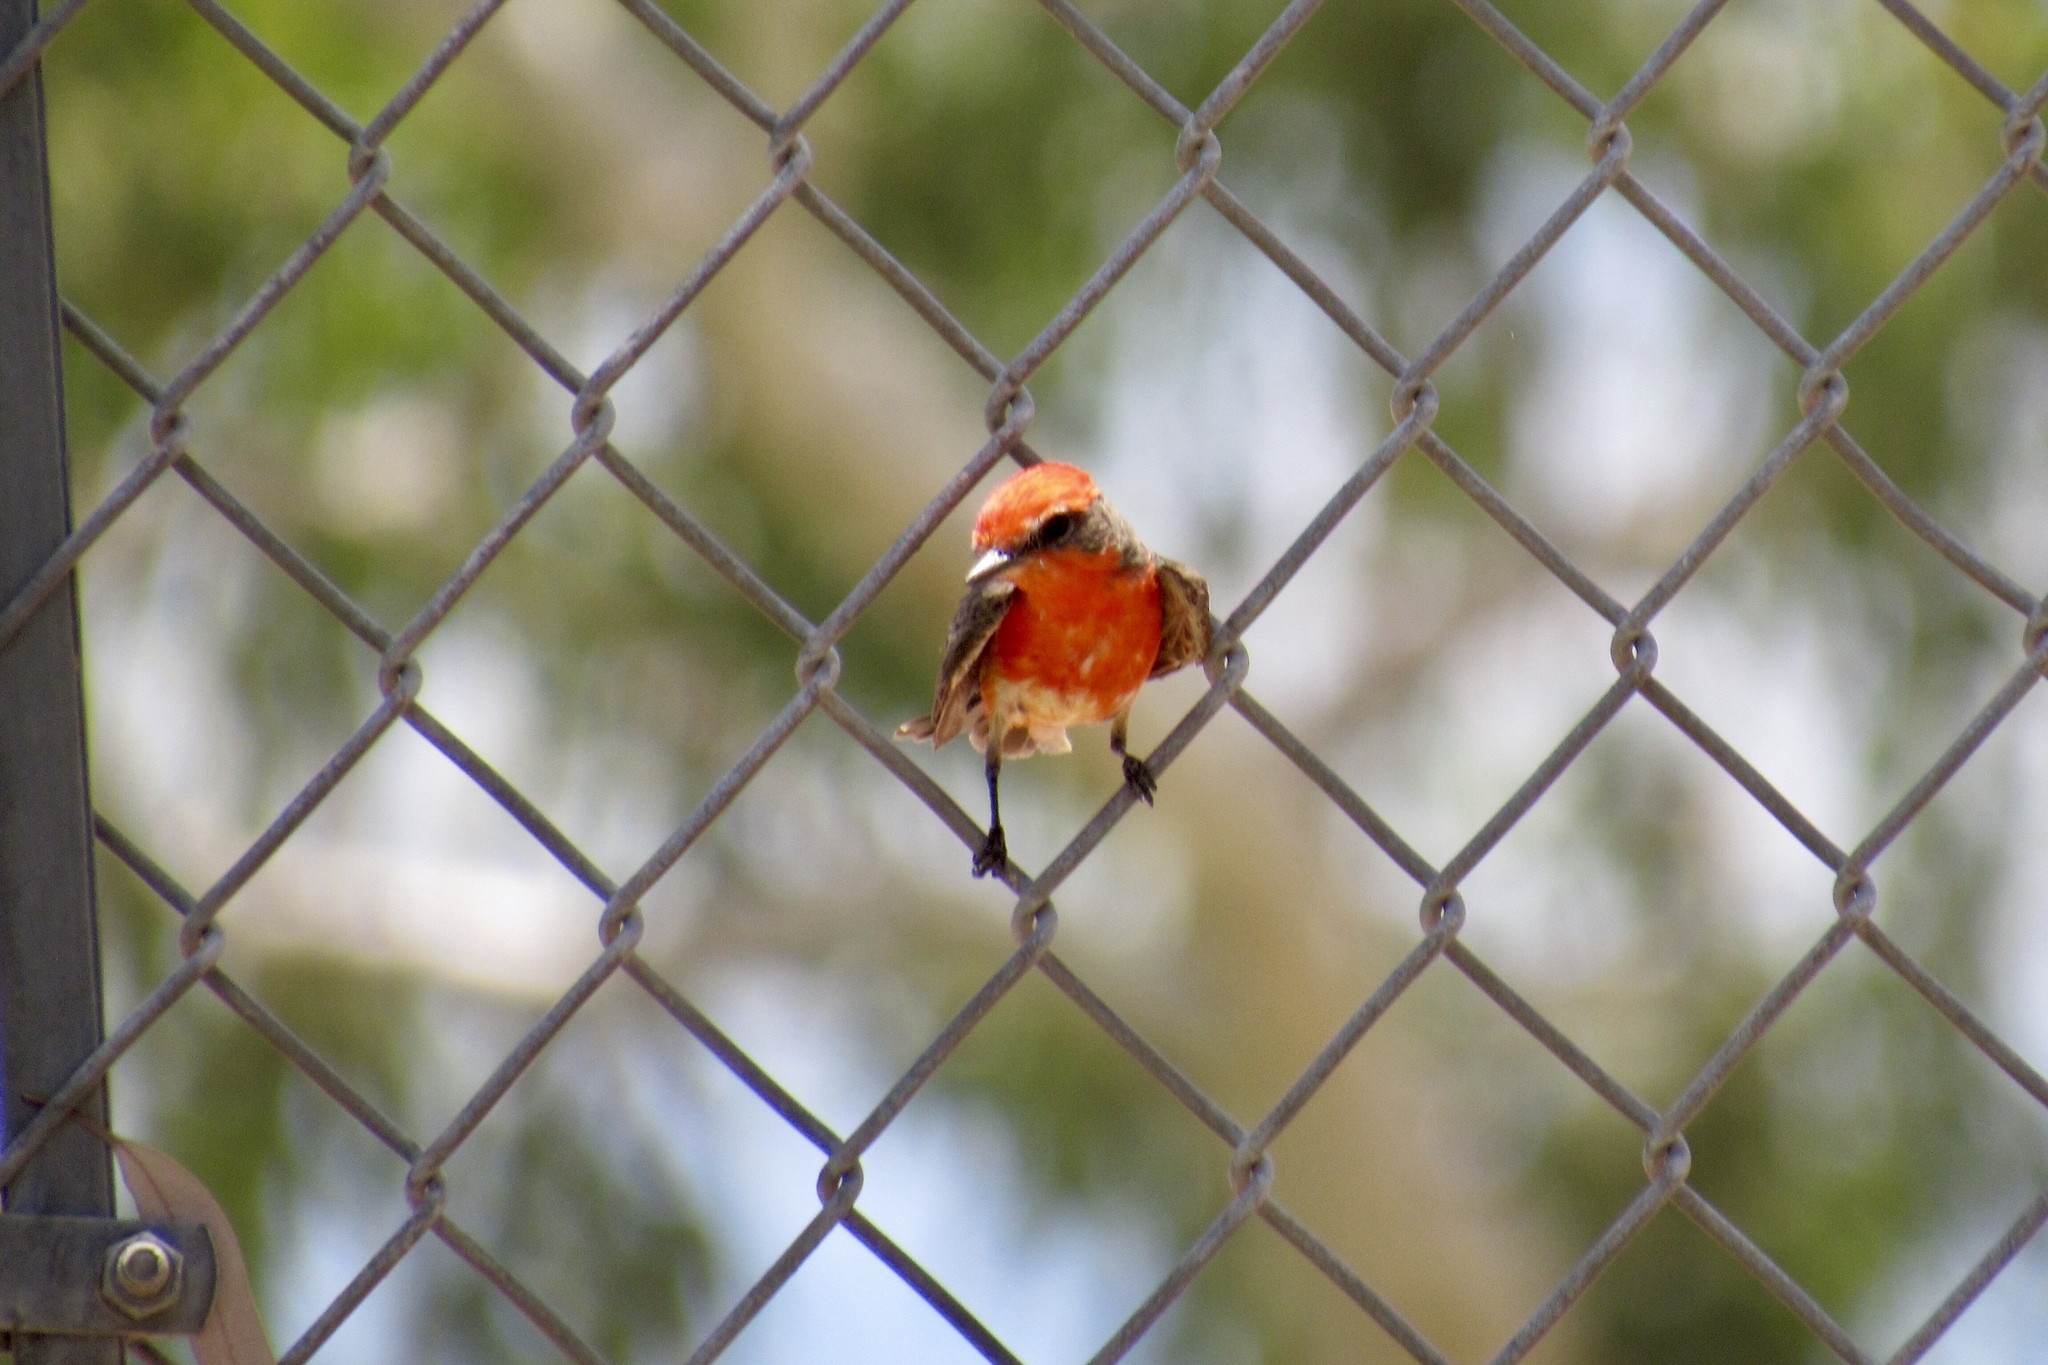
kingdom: Animalia
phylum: Chordata
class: Aves
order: Passeriformes
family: Tyrannidae
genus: Pyrocephalus
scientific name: Pyrocephalus rubinus
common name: Vermilion flycatcher
